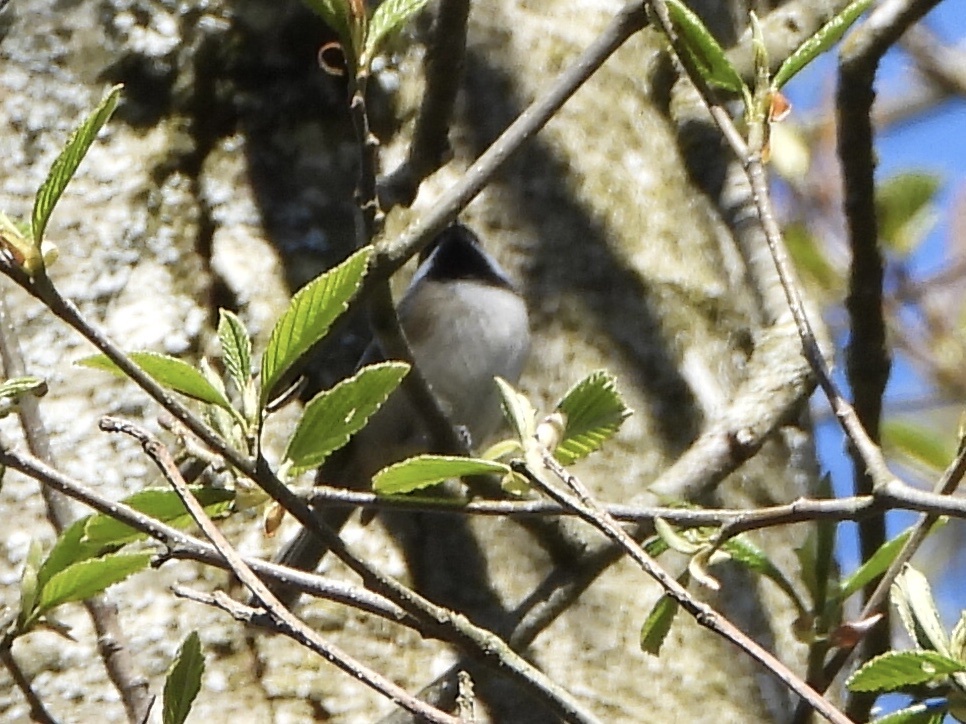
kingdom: Animalia
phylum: Chordata
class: Aves
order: Passeriformes
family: Paridae
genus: Poecile
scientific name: Poecile atricapillus
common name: Black-capped chickadee
